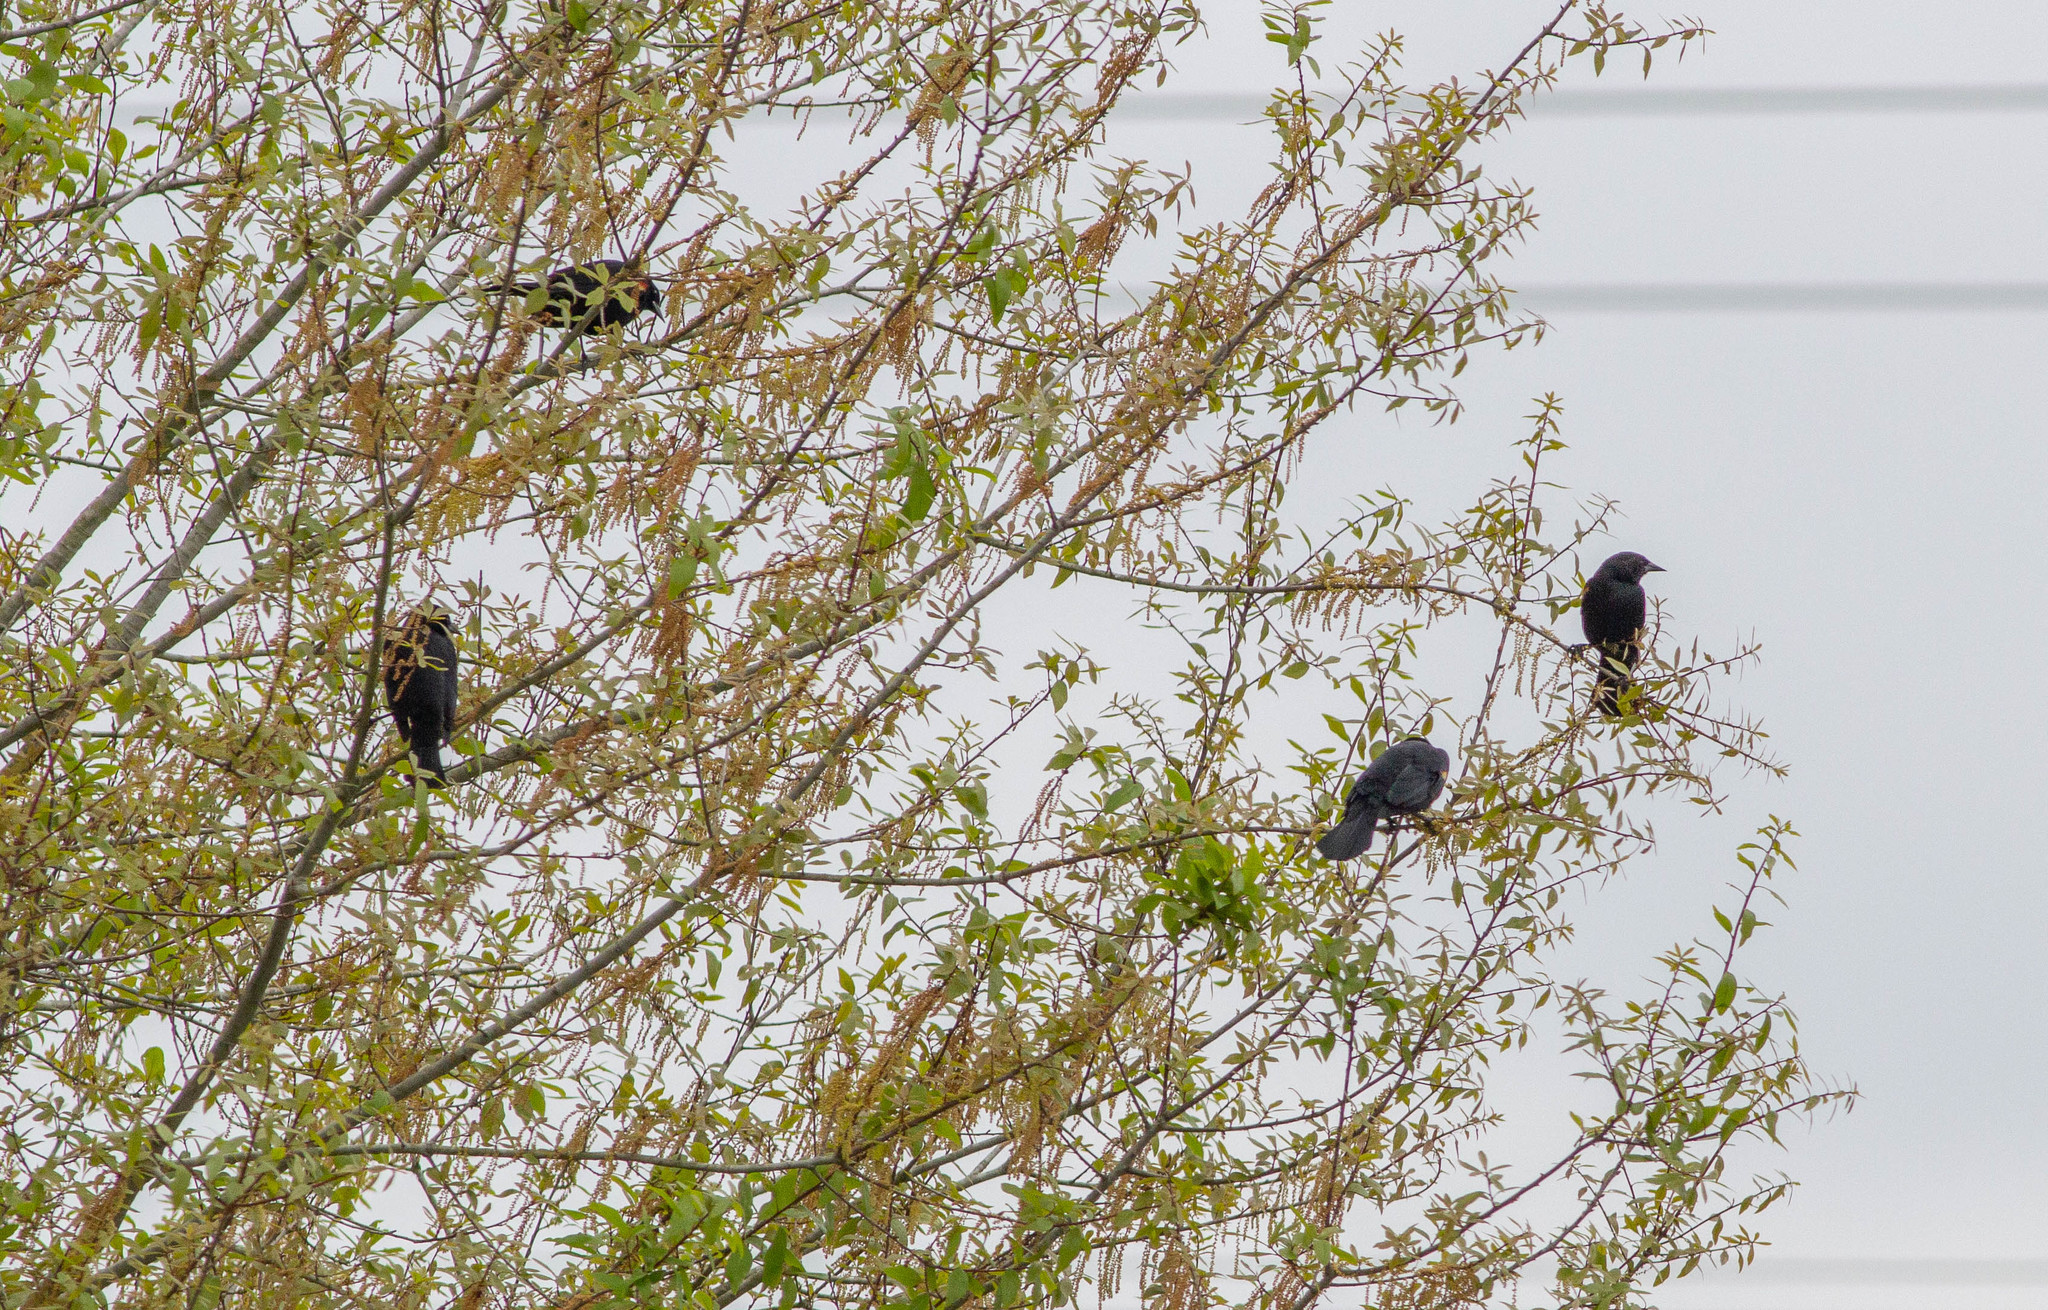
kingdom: Animalia
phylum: Chordata
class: Aves
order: Passeriformes
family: Icteridae
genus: Agelaius
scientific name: Agelaius phoeniceus
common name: Red-winged blackbird
